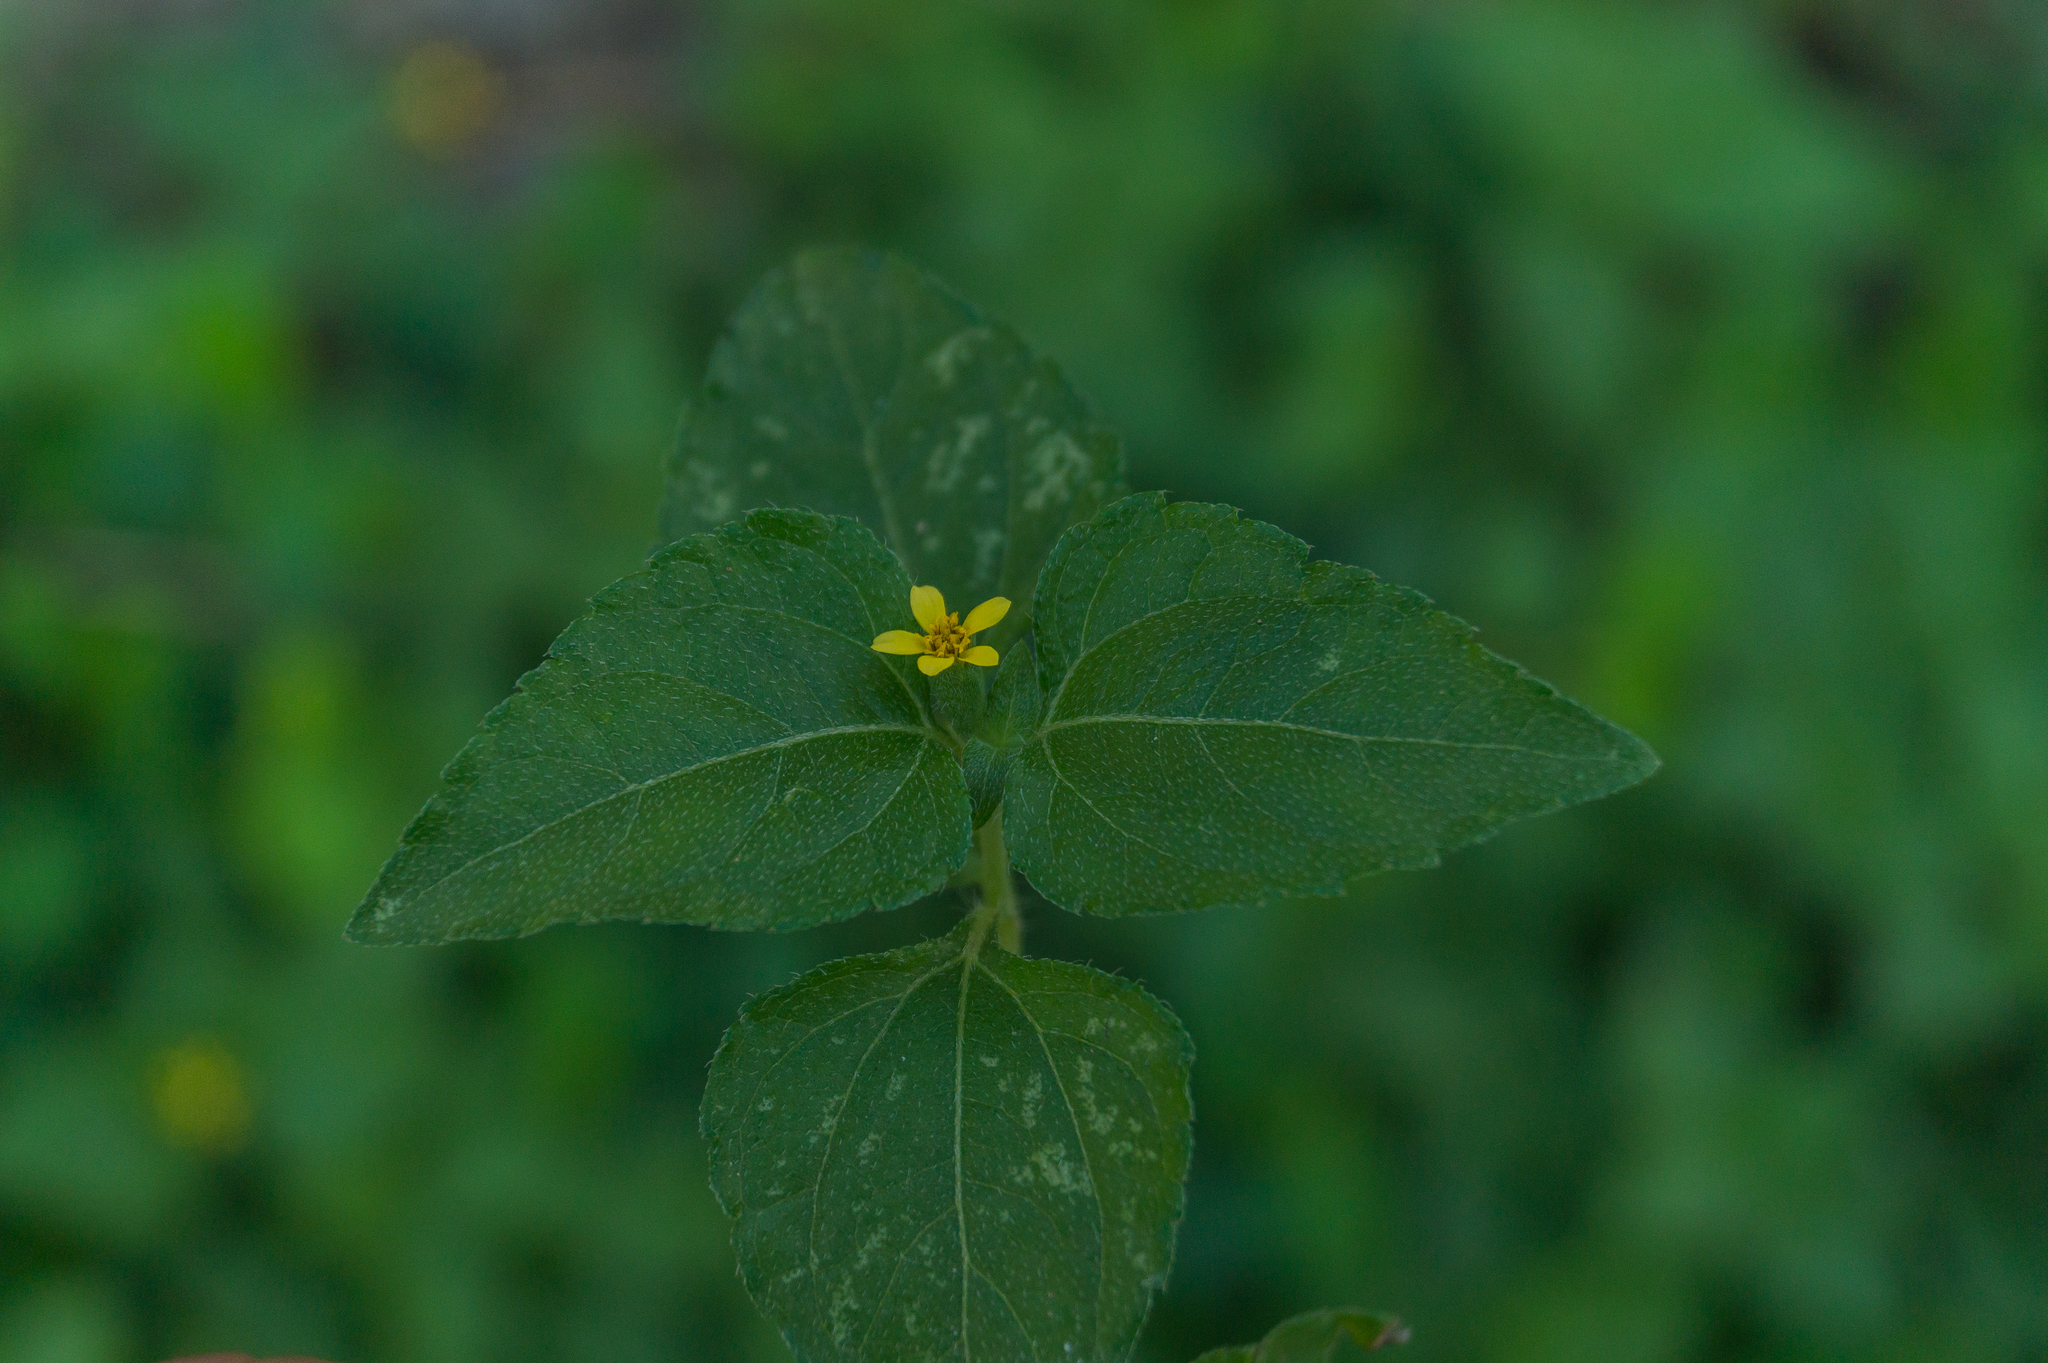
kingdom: Plantae
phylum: Tracheophyta
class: Magnoliopsida
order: Asterales
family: Asteraceae
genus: Calyptocarpus
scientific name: Calyptocarpus vialis
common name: Straggler daisy
